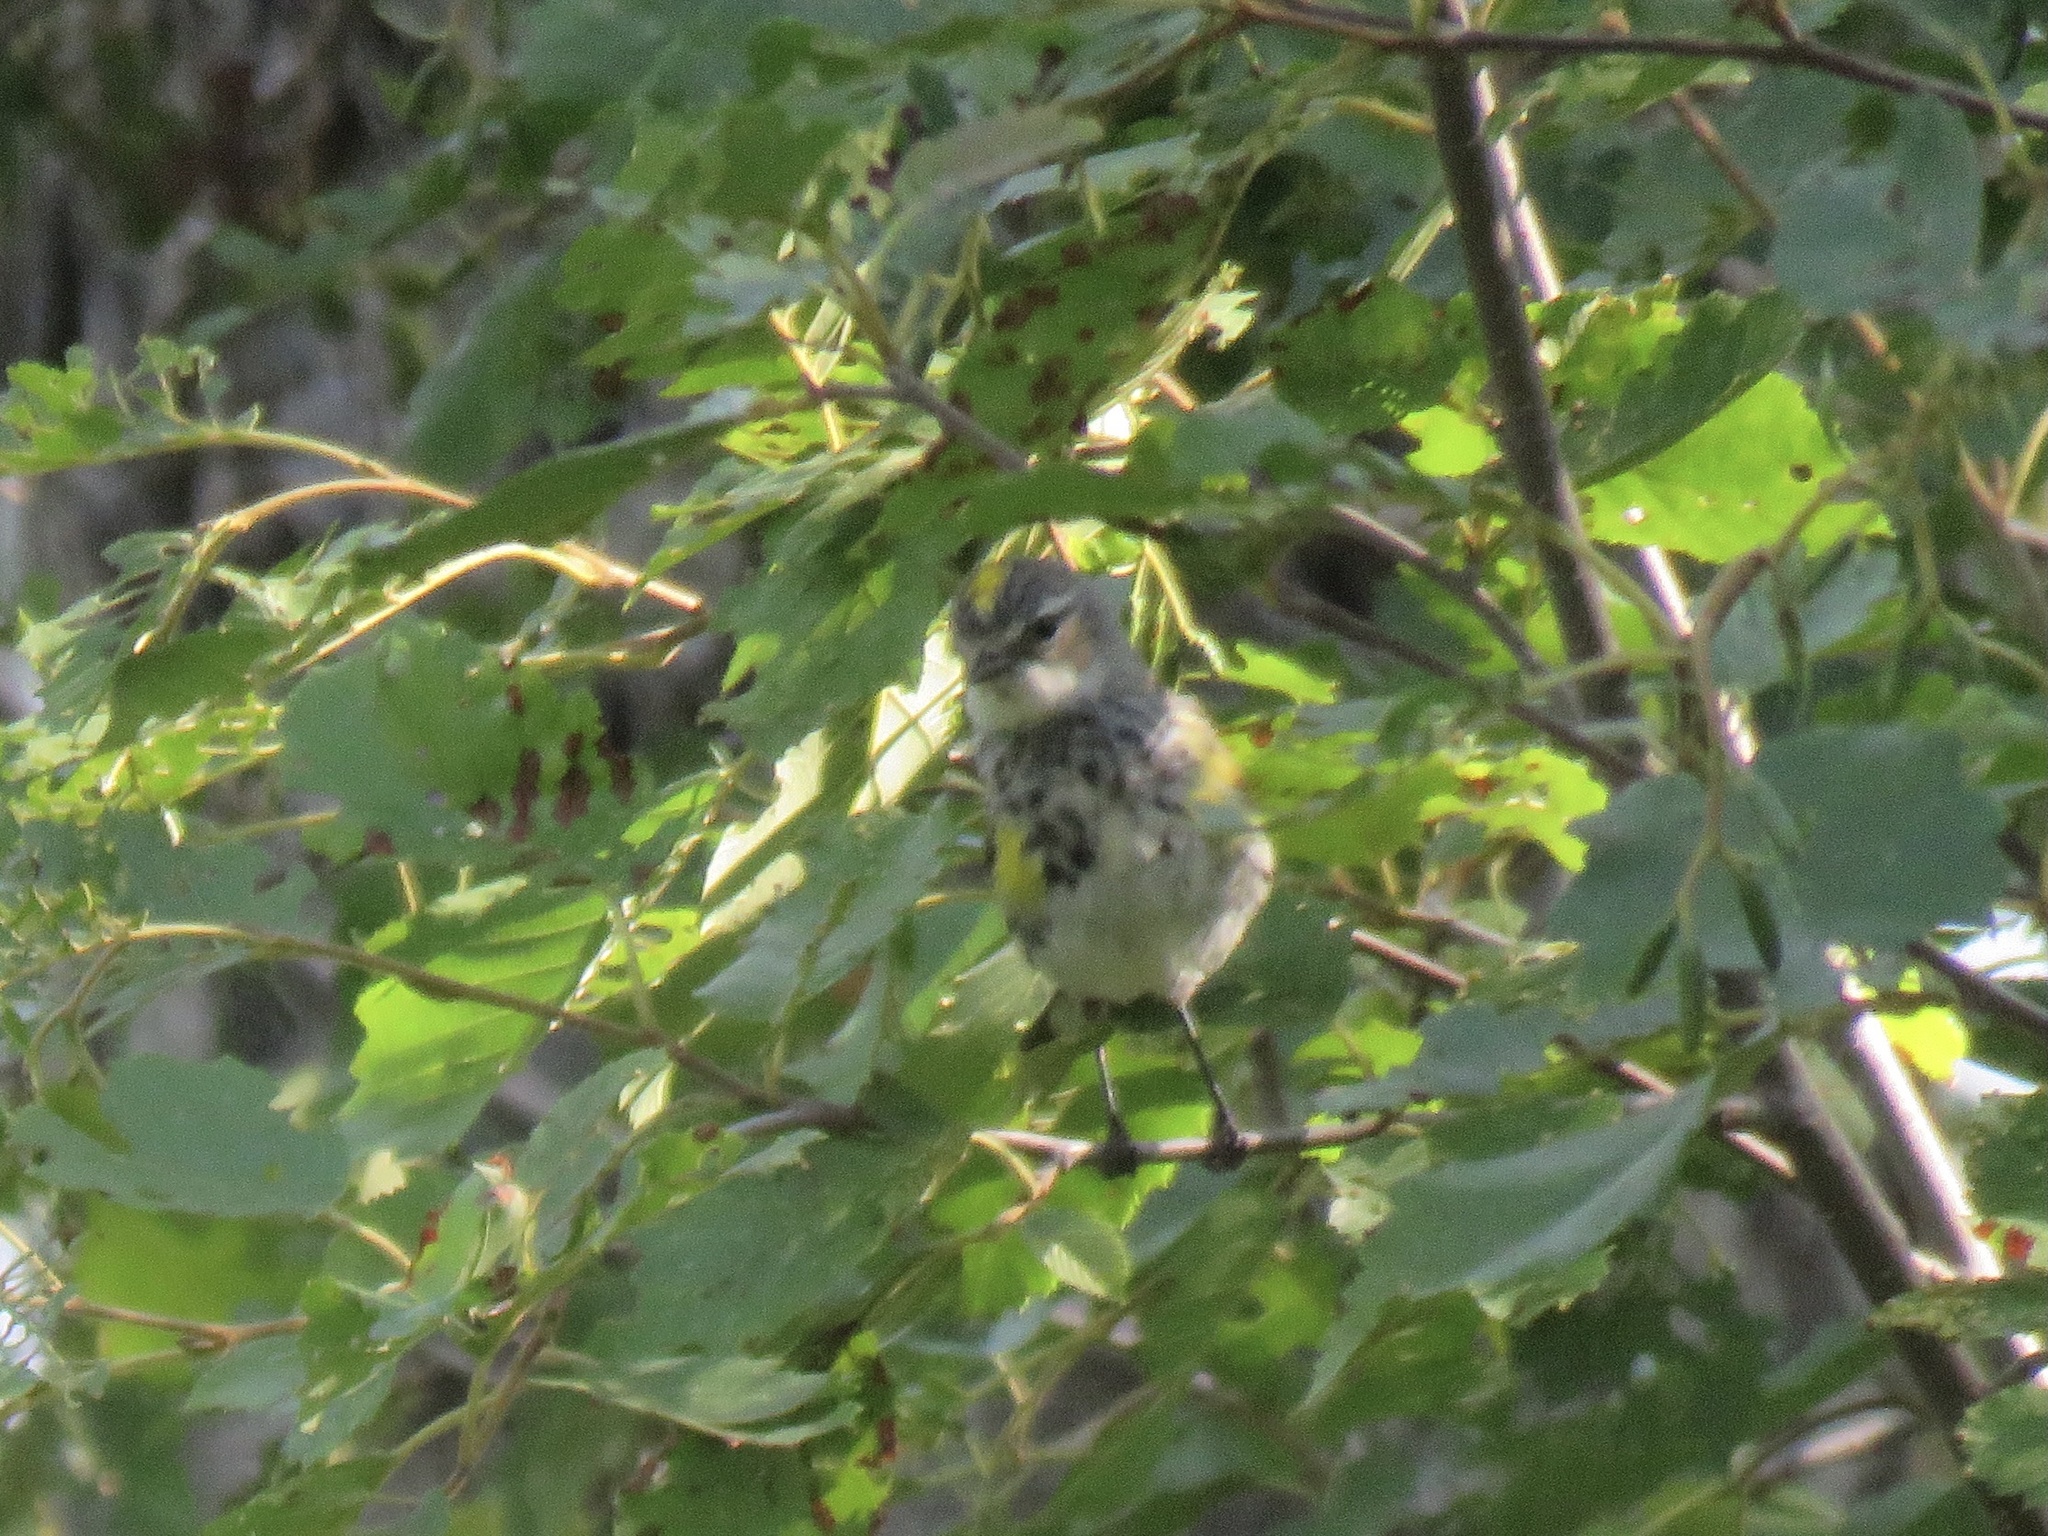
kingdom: Animalia
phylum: Chordata
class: Aves
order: Passeriformes
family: Parulidae
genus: Setophaga
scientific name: Setophaga coronata
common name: Myrtle warbler
